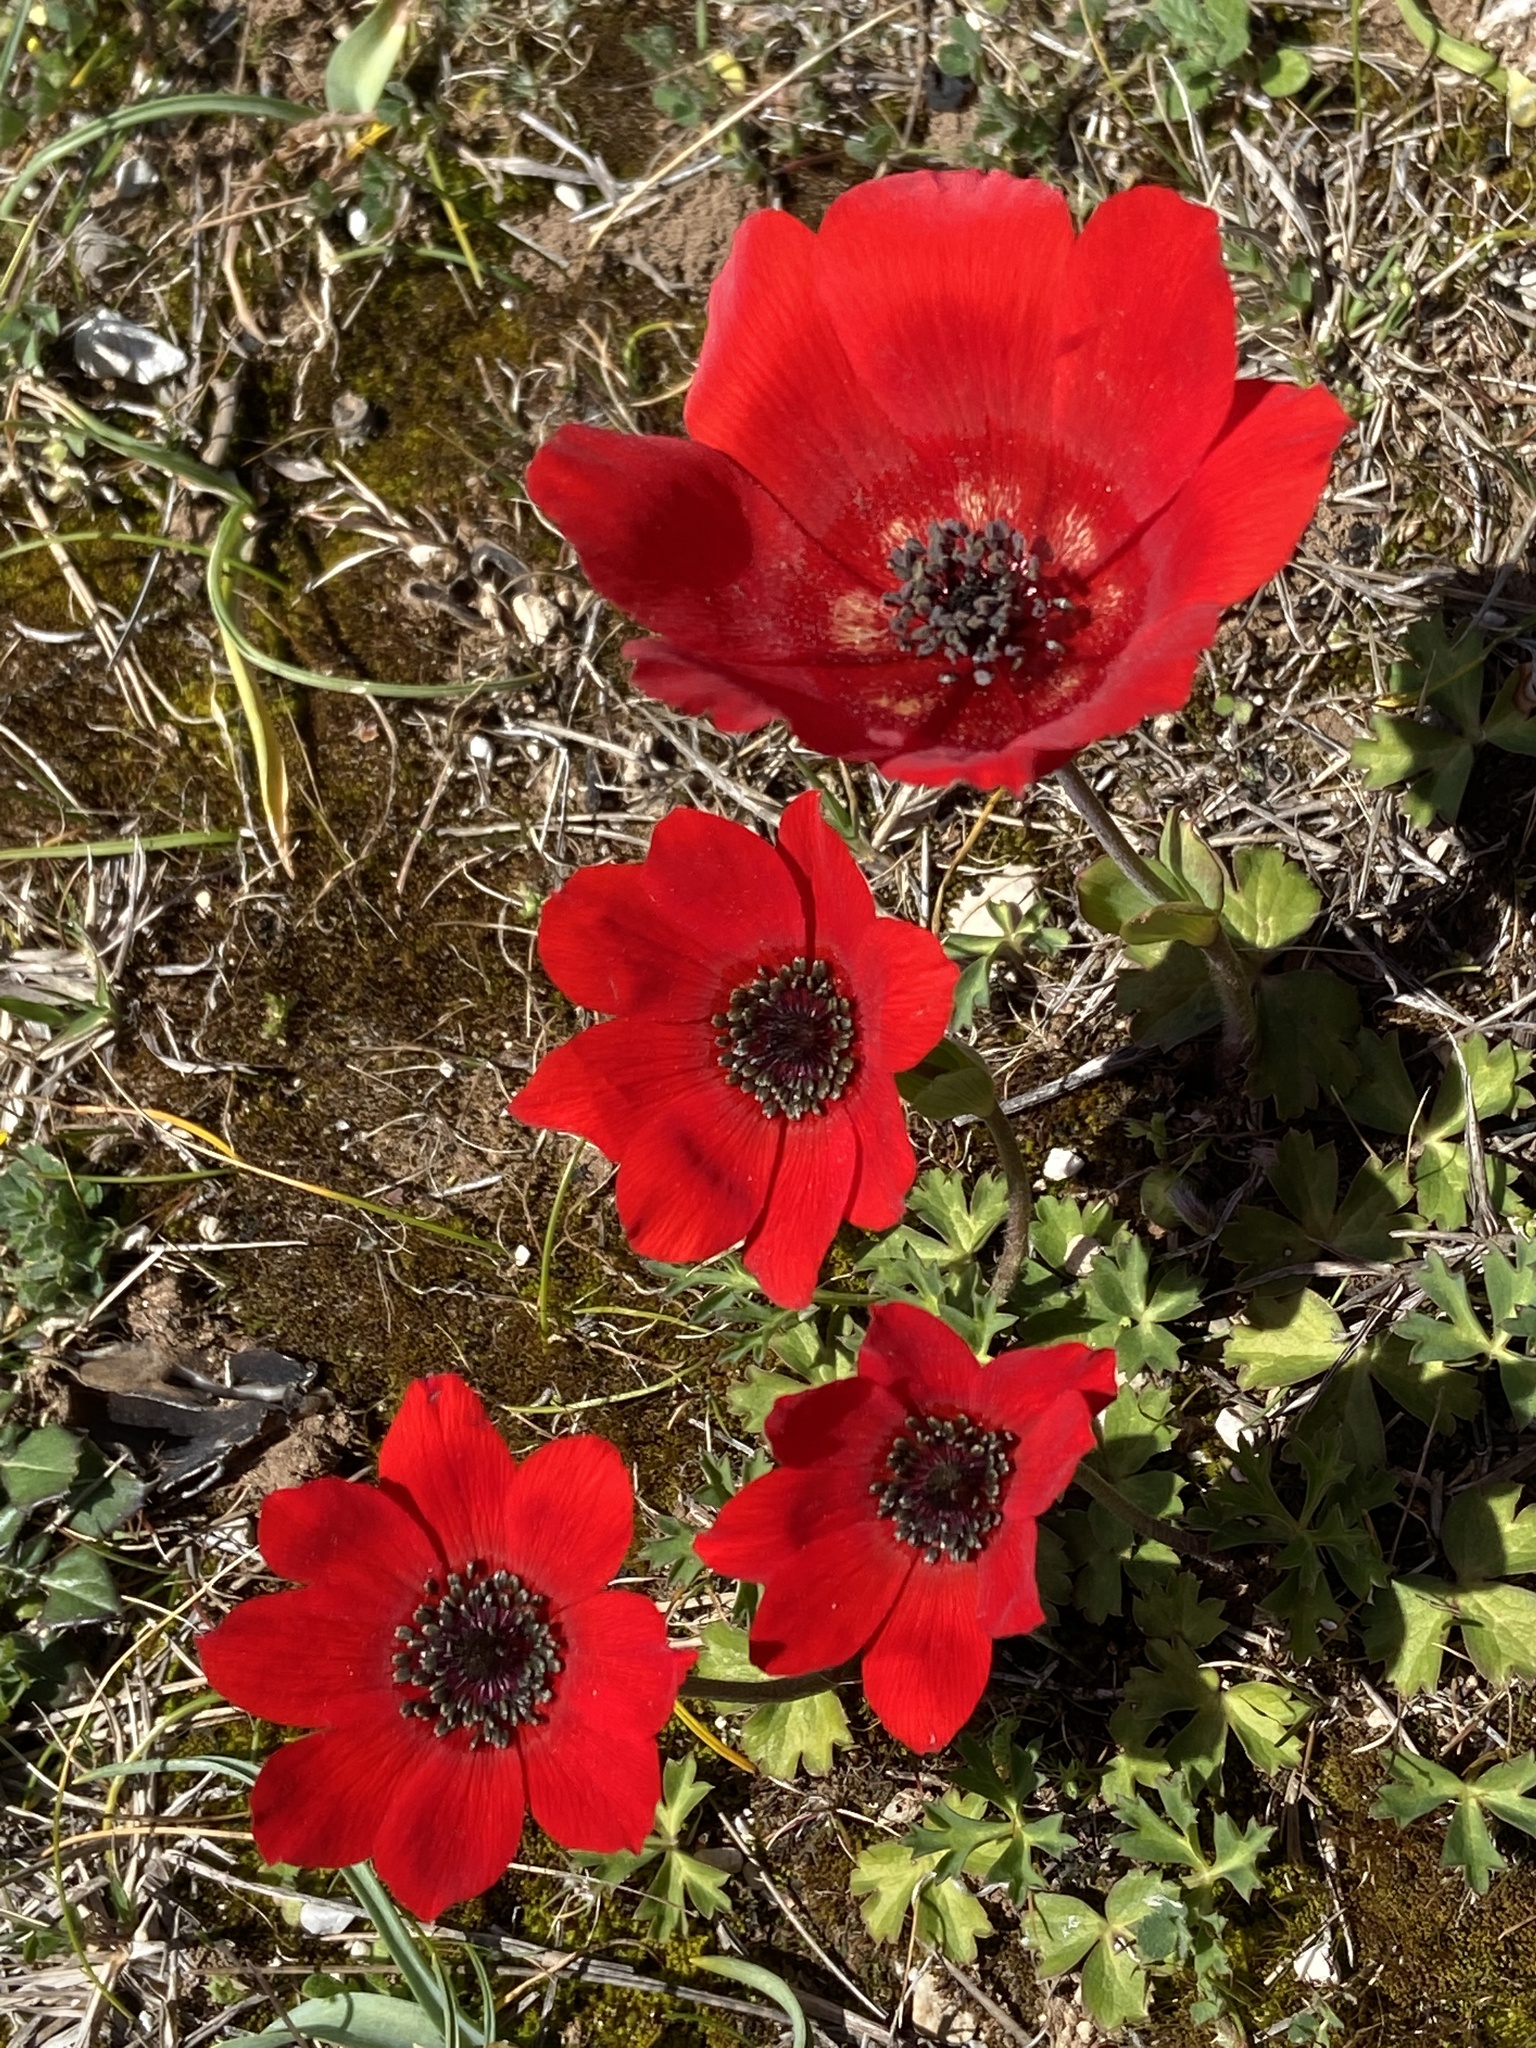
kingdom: Plantae
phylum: Tracheophyta
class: Magnoliopsida
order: Ranunculales
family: Ranunculaceae
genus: Anemone
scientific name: Anemone pavonina
